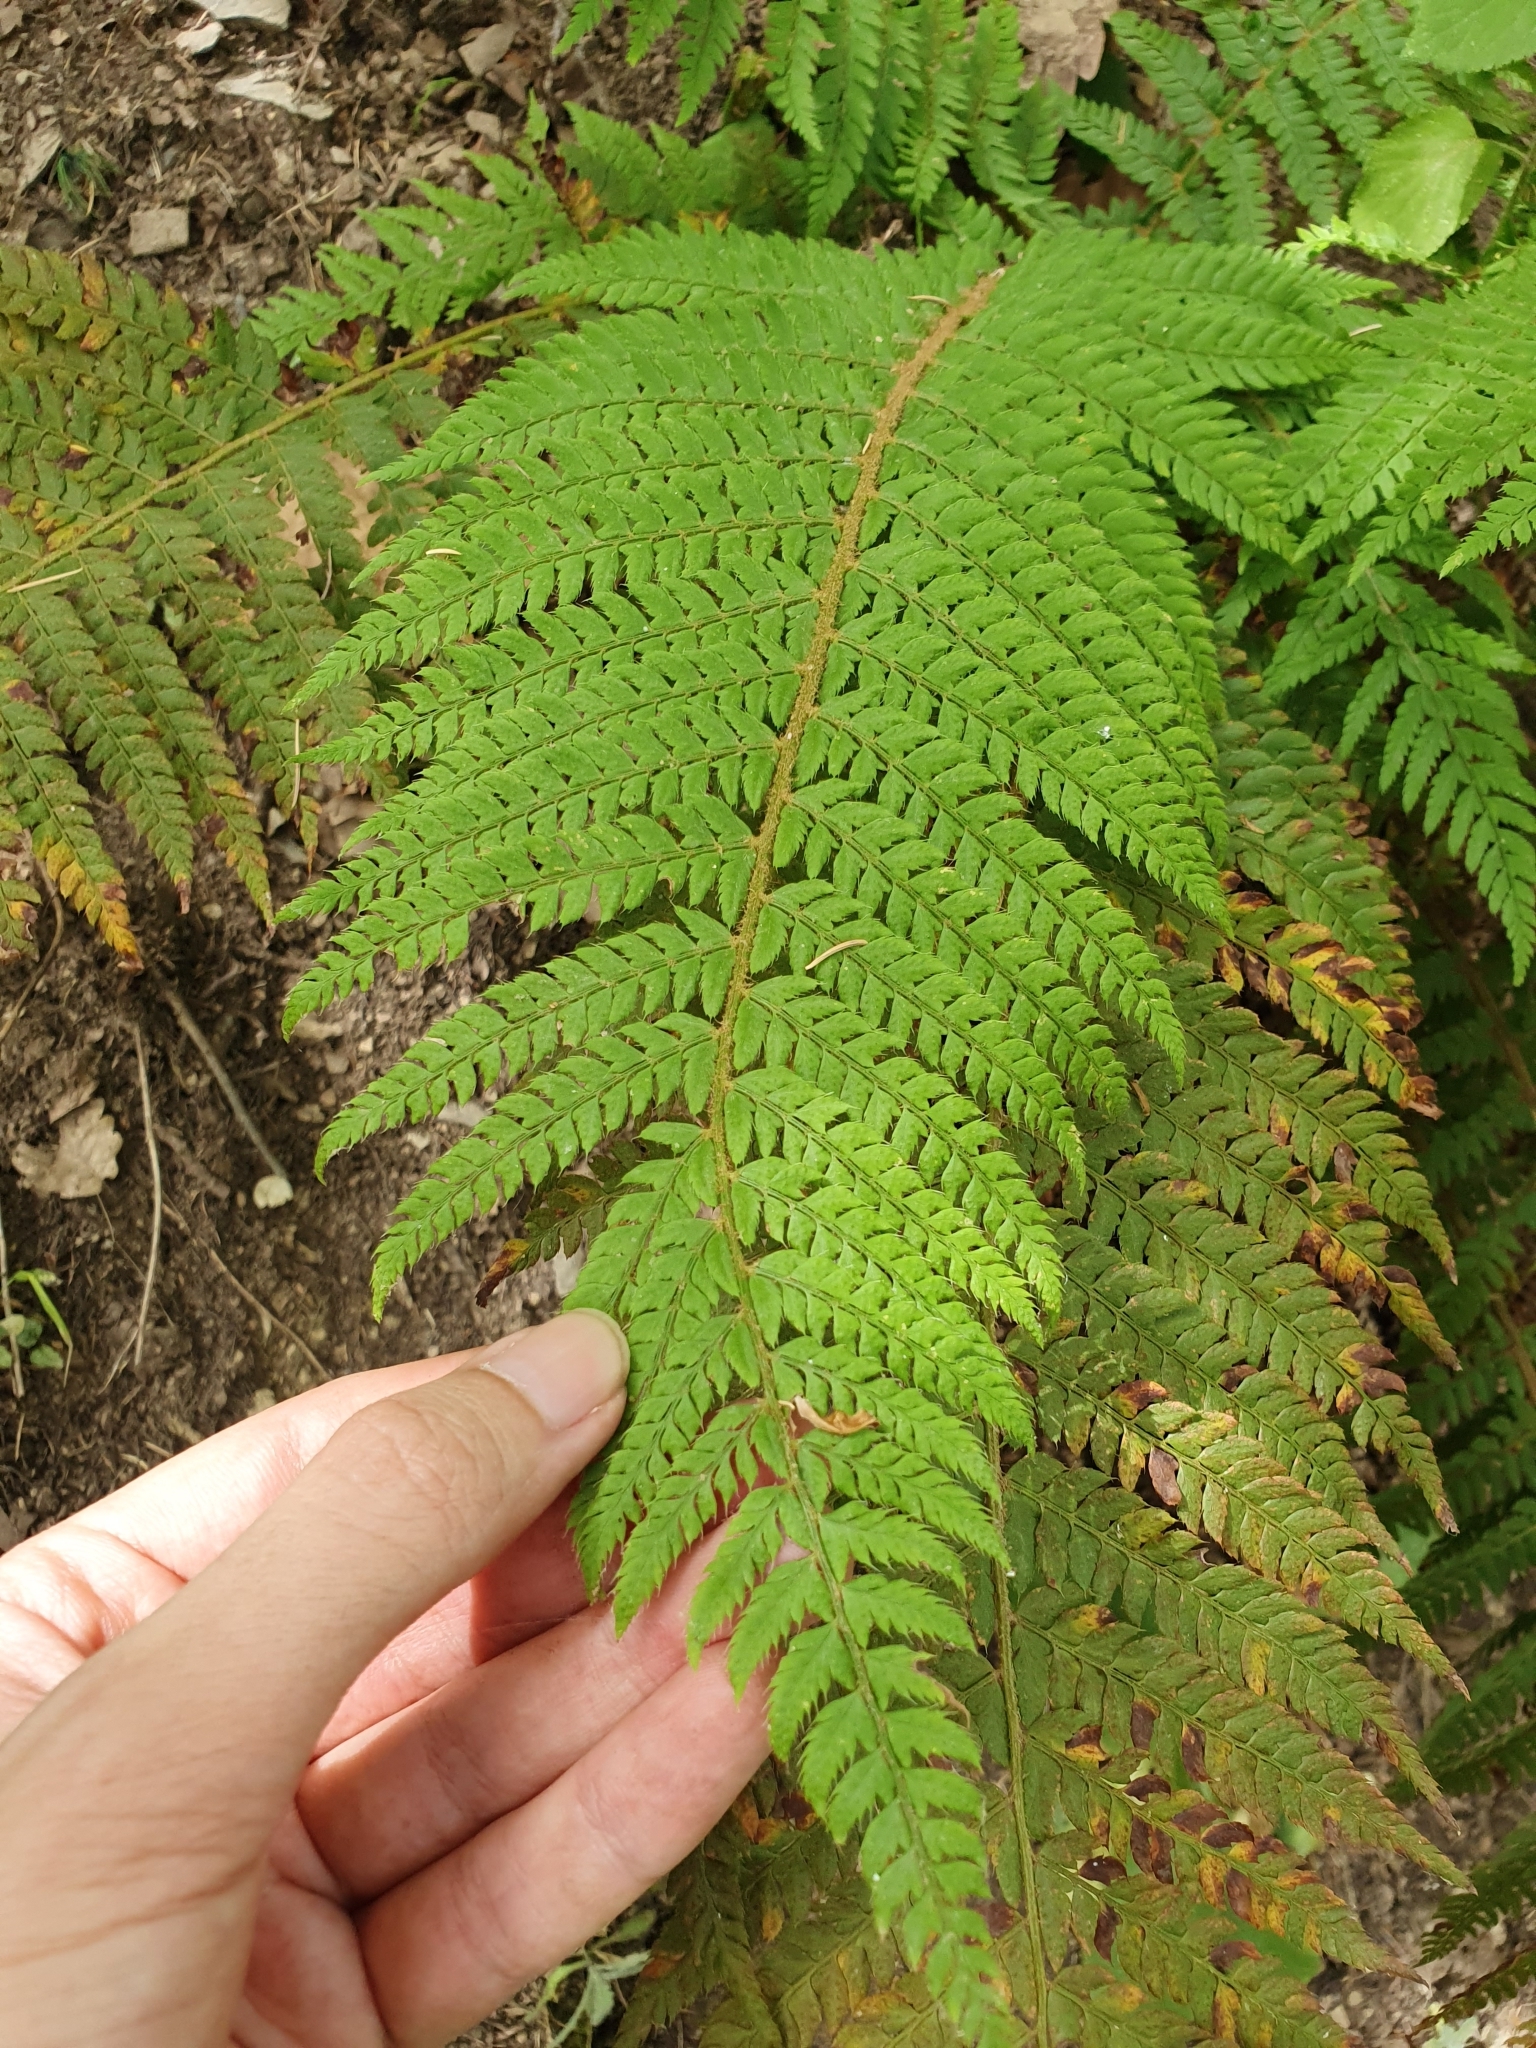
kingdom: Plantae
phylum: Tracheophyta
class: Polypodiopsida
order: Polypodiales
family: Dryopteridaceae
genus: Polystichum
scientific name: Polystichum setiferum
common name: Soft shield-fern
